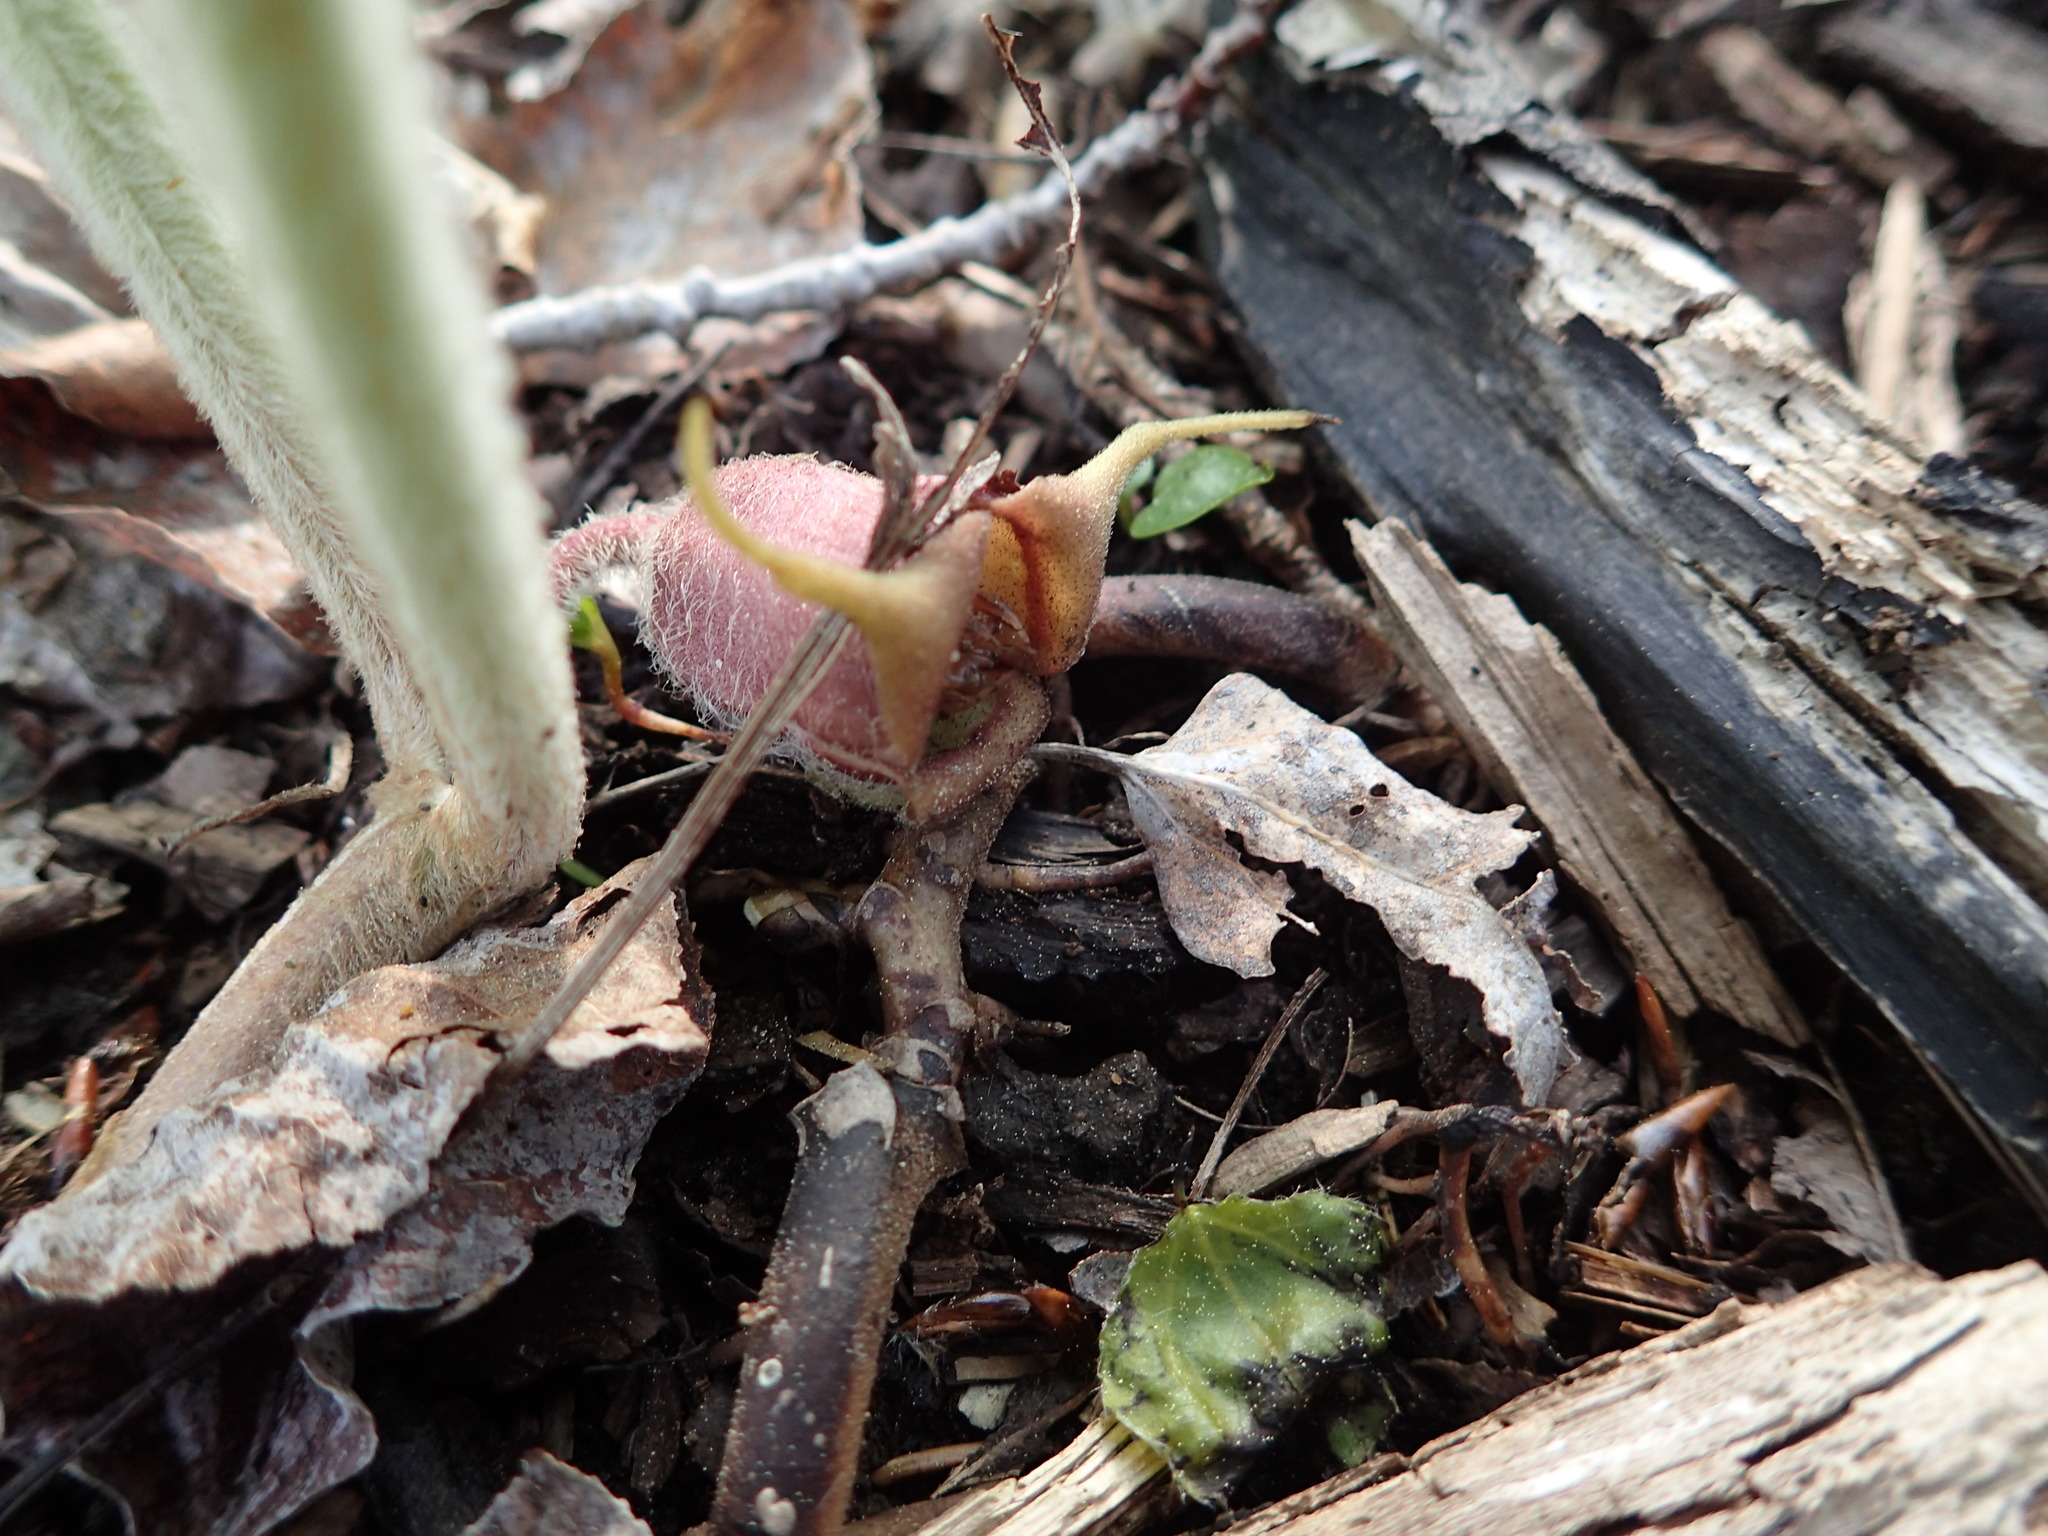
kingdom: Plantae
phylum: Tracheophyta
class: Magnoliopsida
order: Piperales
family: Aristolochiaceae
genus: Asarum
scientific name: Asarum canadense
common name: Wild ginger
